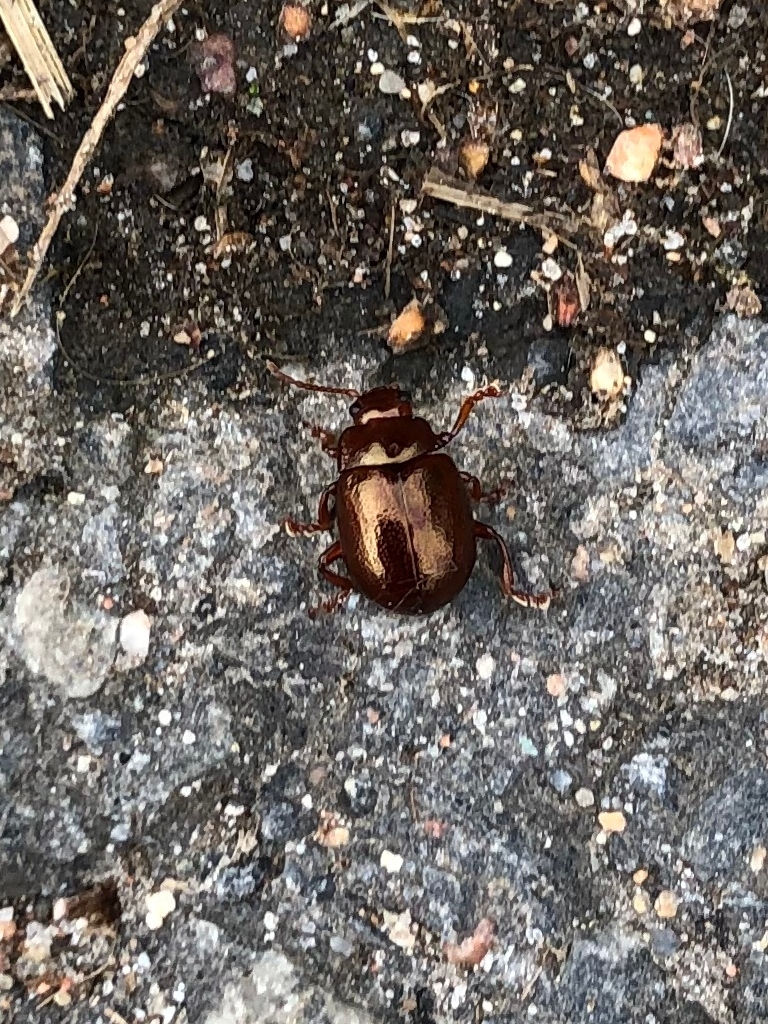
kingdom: Animalia
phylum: Arthropoda
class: Insecta
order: Coleoptera
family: Chrysomelidae
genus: Chrysolina
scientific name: Chrysolina staphylaea
